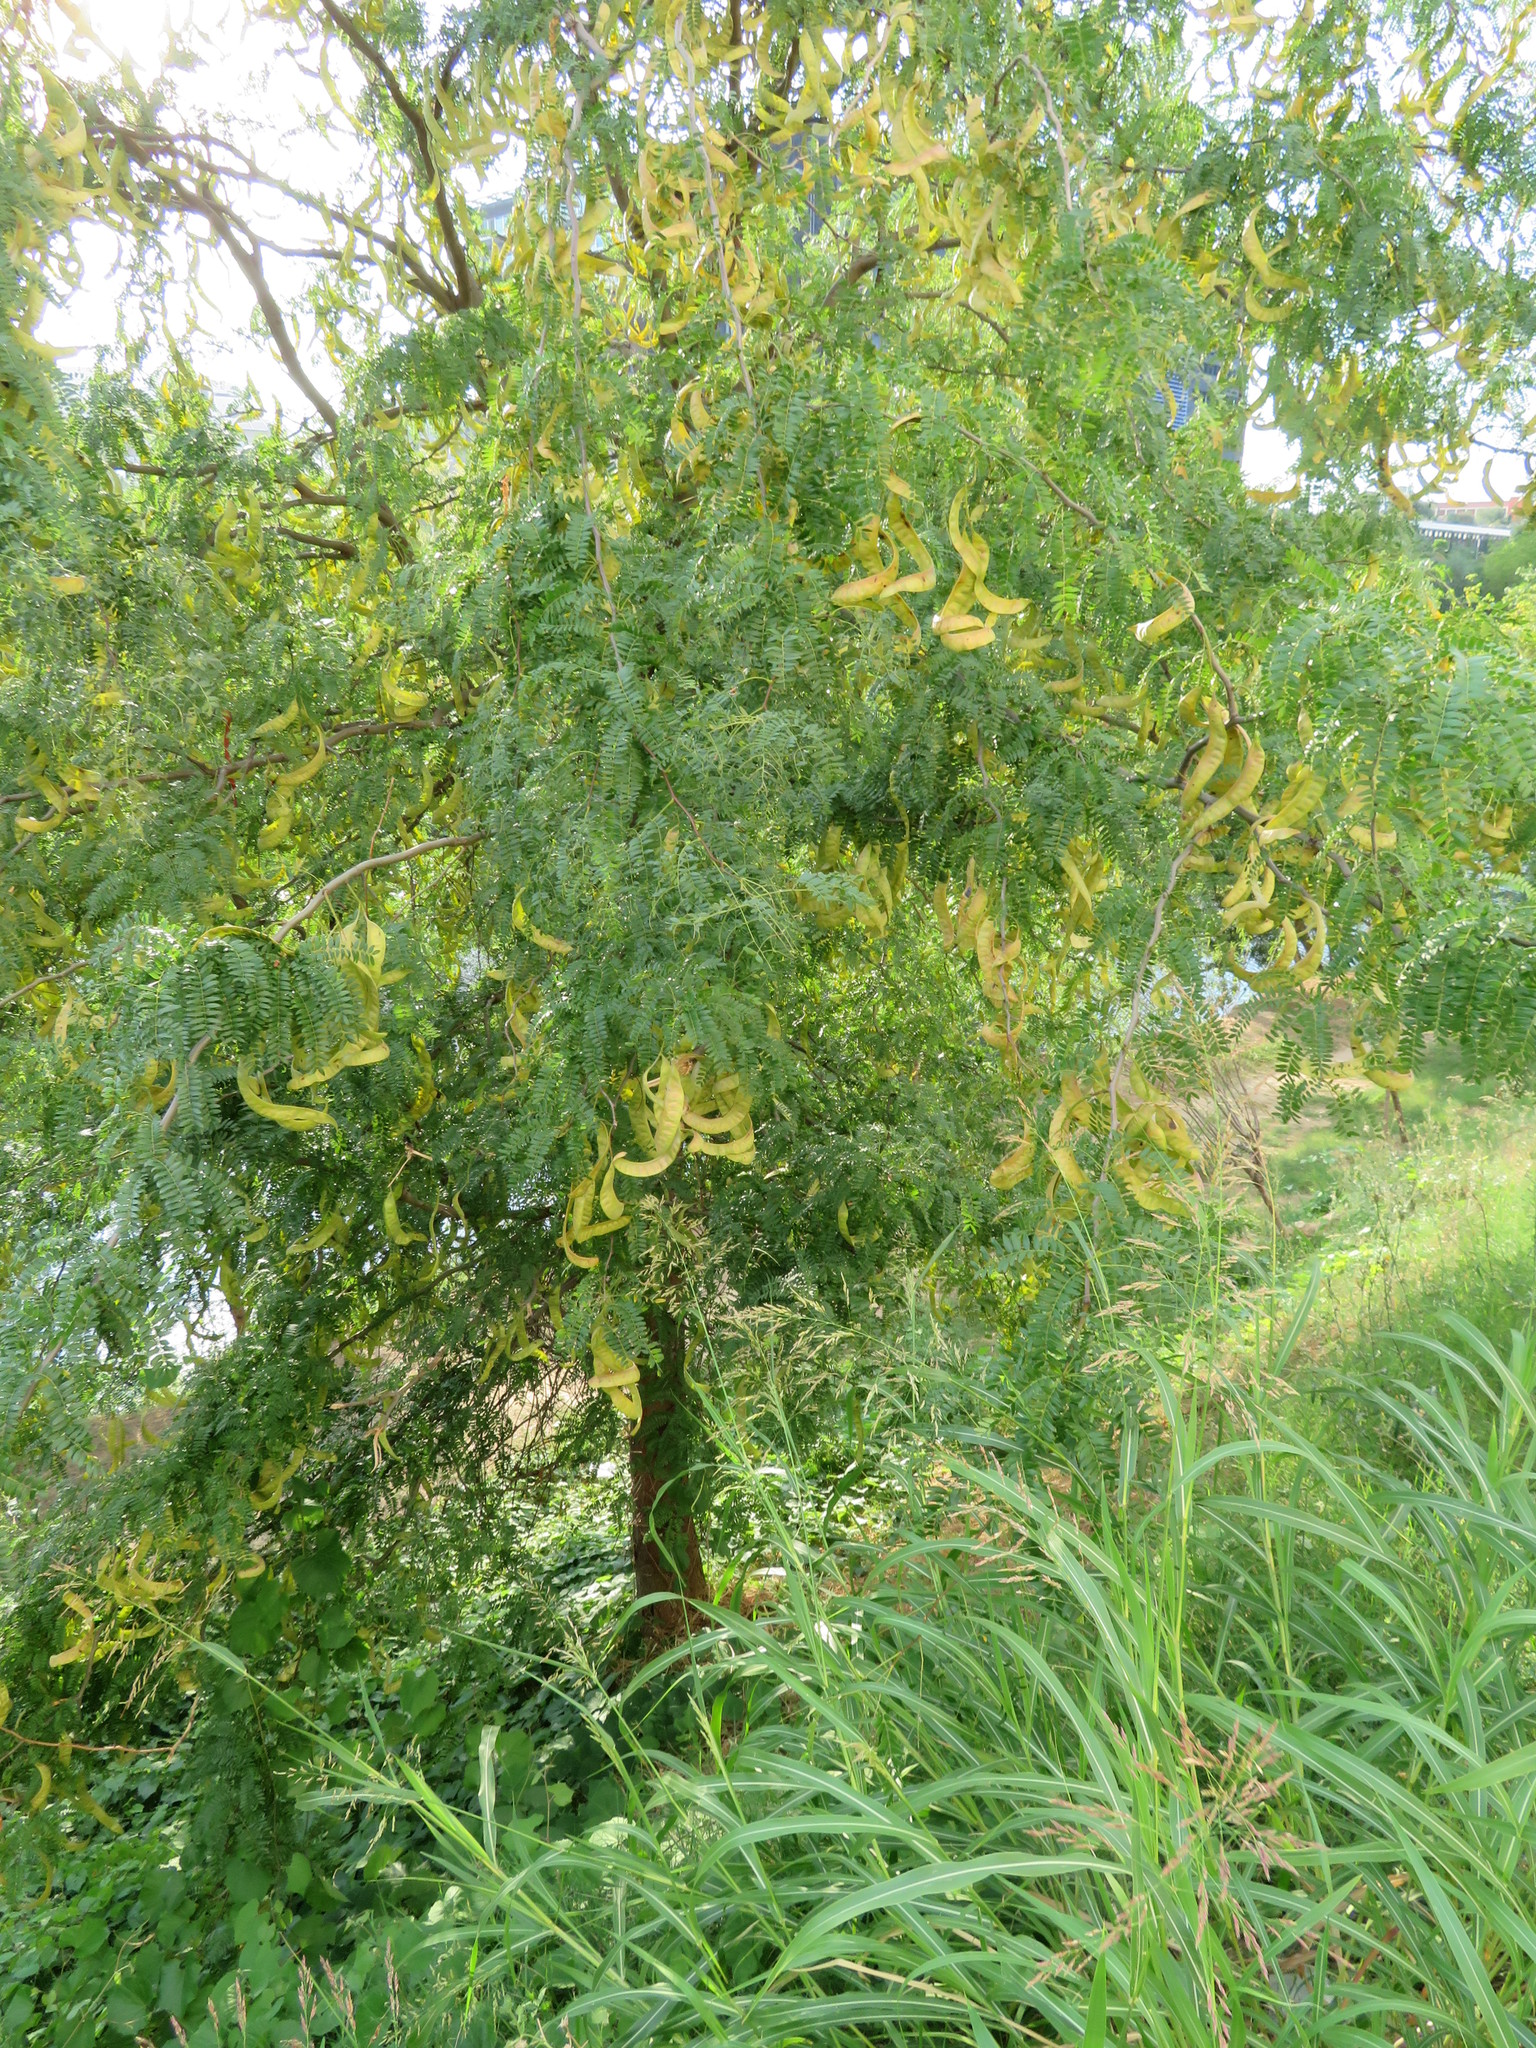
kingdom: Plantae
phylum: Tracheophyta
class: Magnoliopsida
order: Fabales
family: Fabaceae
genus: Gleditsia
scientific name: Gleditsia triacanthos
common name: Common honeylocust
